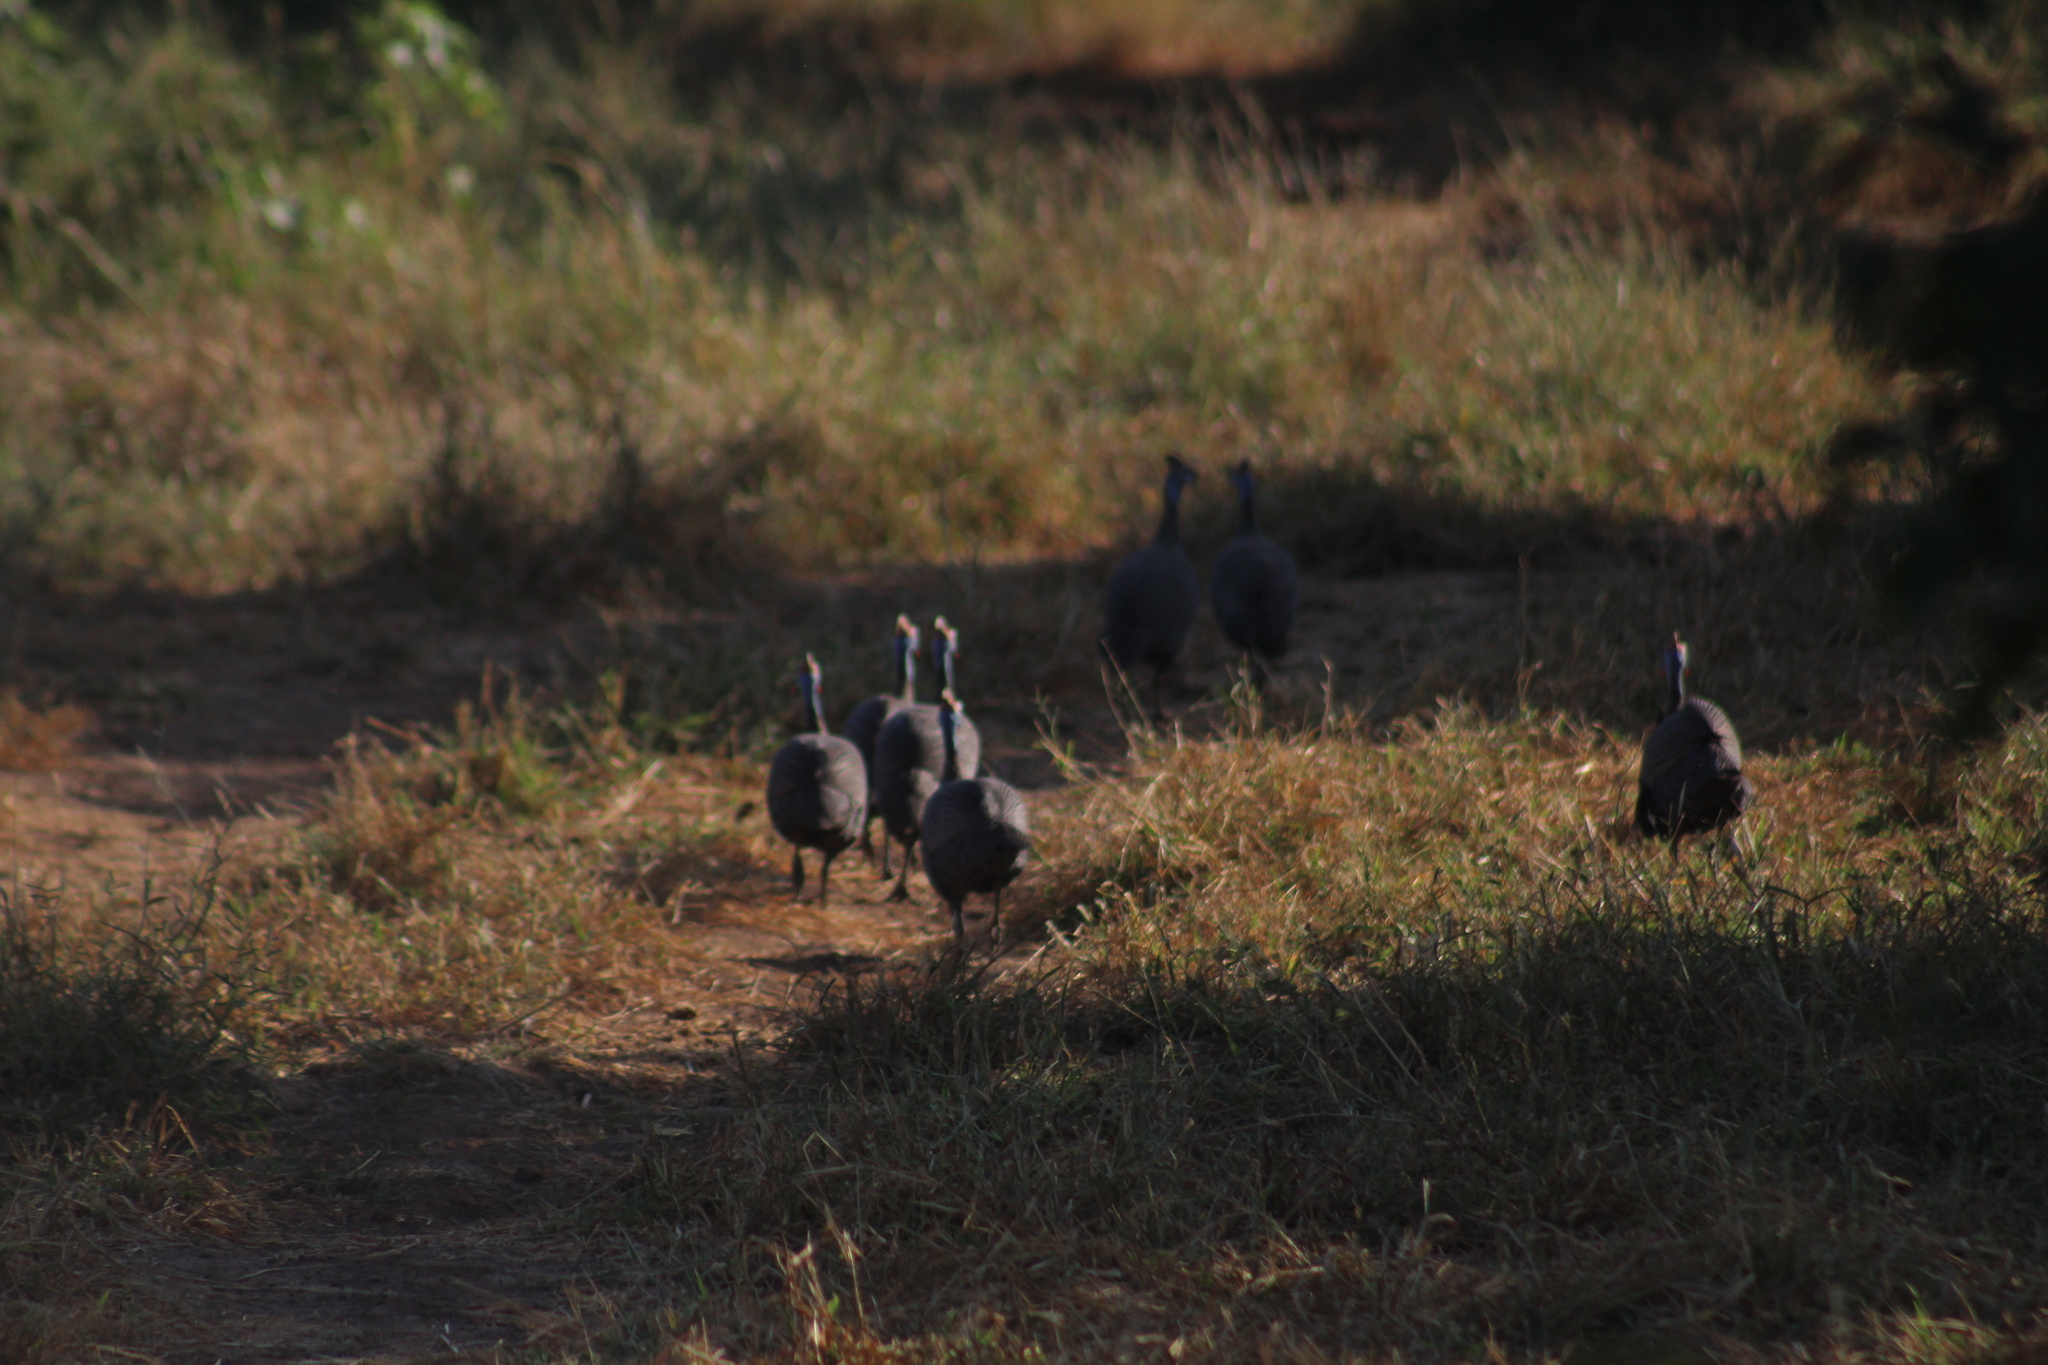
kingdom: Animalia
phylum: Chordata
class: Aves
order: Galliformes
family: Numididae
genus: Numida
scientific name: Numida meleagris
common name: Helmeted guineafowl
